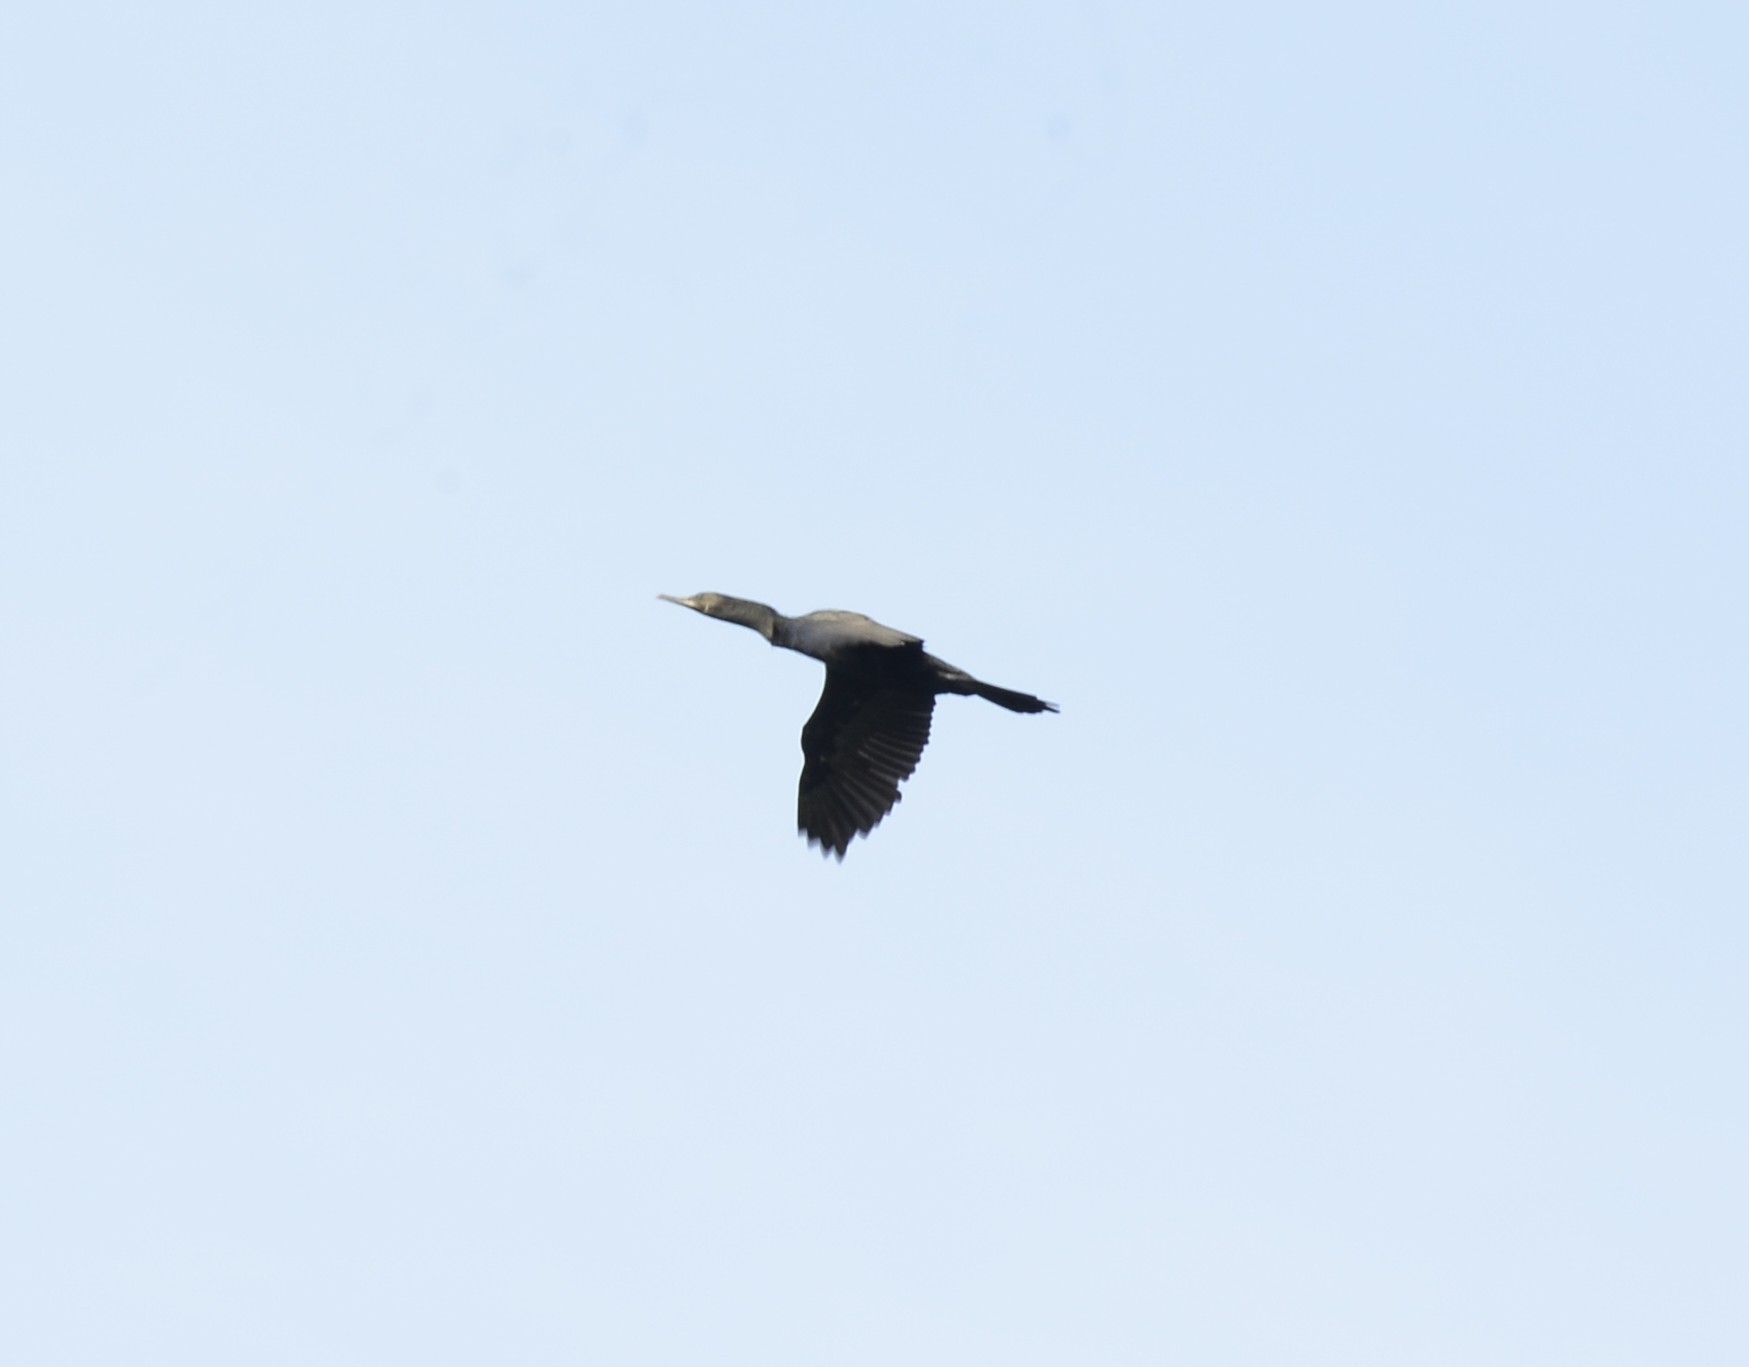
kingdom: Animalia
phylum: Chordata
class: Aves
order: Suliformes
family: Phalacrocoracidae
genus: Phalacrocorax
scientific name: Phalacrocorax fuscicollis
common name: Indian cormorant
